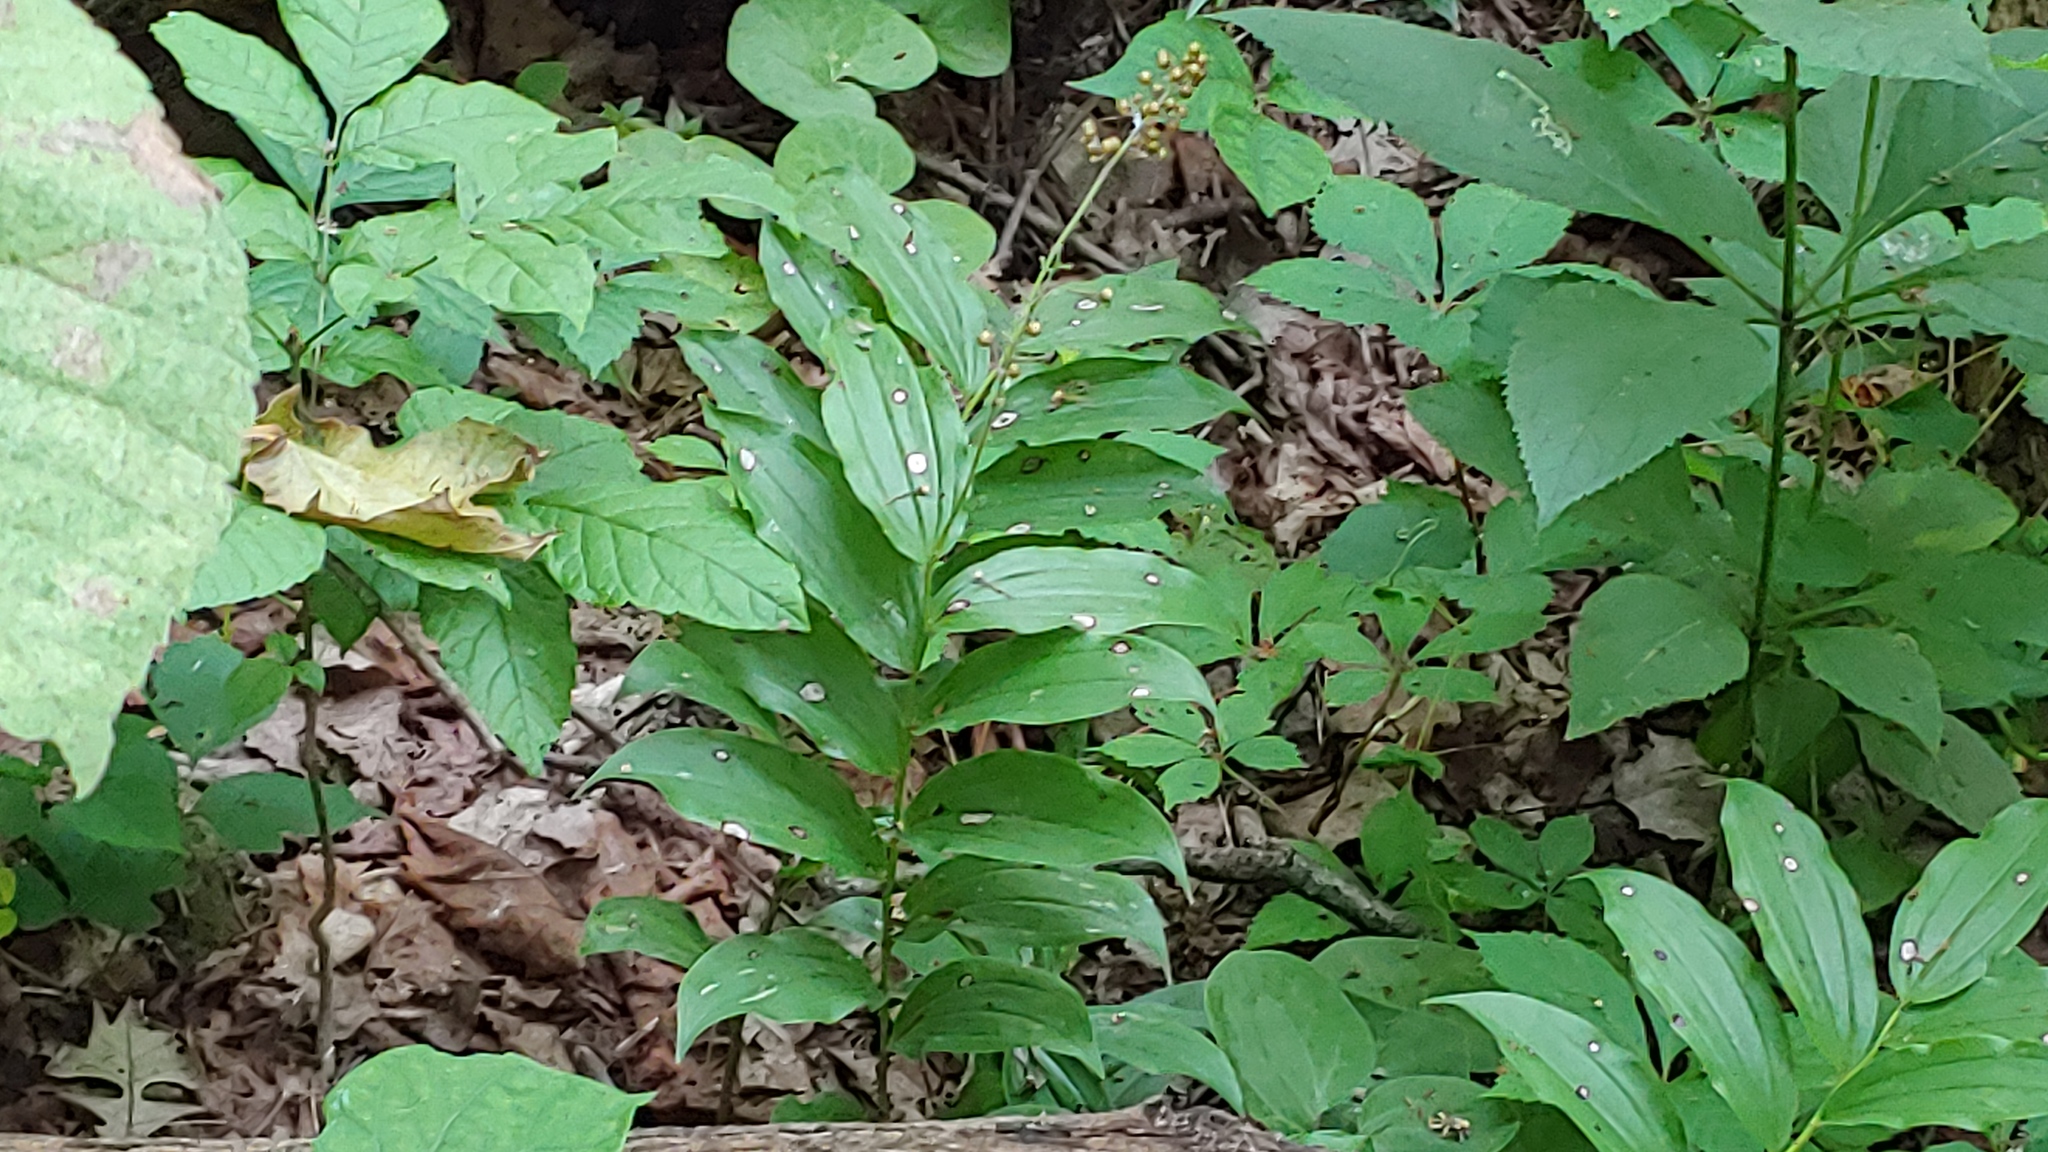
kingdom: Plantae
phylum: Tracheophyta
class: Liliopsida
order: Asparagales
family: Asparagaceae
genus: Maianthemum
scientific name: Maianthemum racemosum
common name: False spikenard
